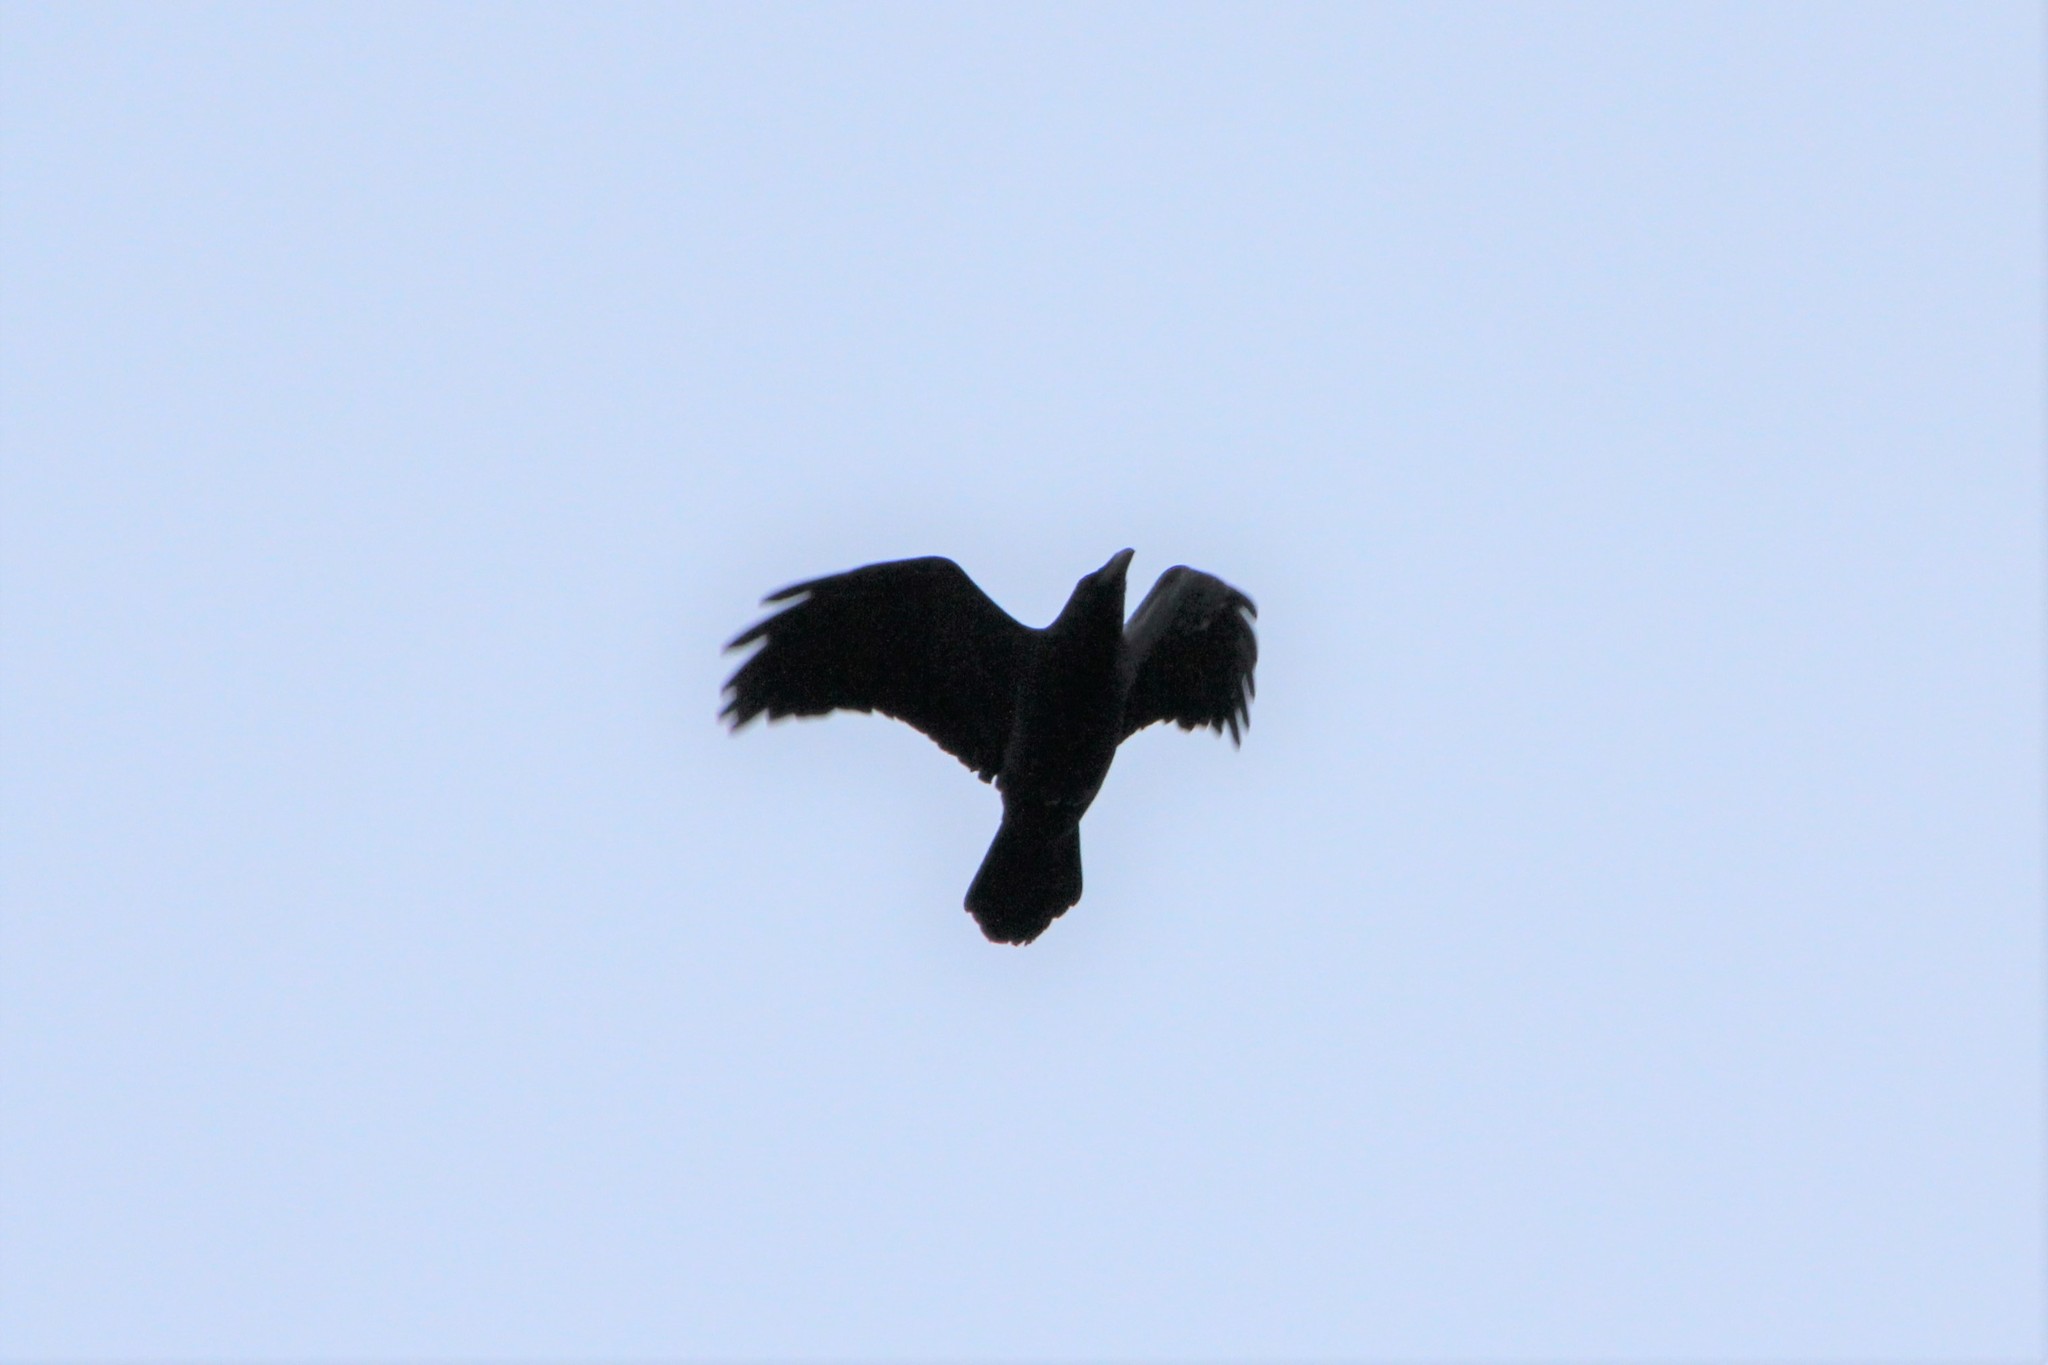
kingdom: Animalia
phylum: Chordata
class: Aves
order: Passeriformes
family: Corvidae
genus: Corvus
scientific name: Corvus corax
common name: Common raven
